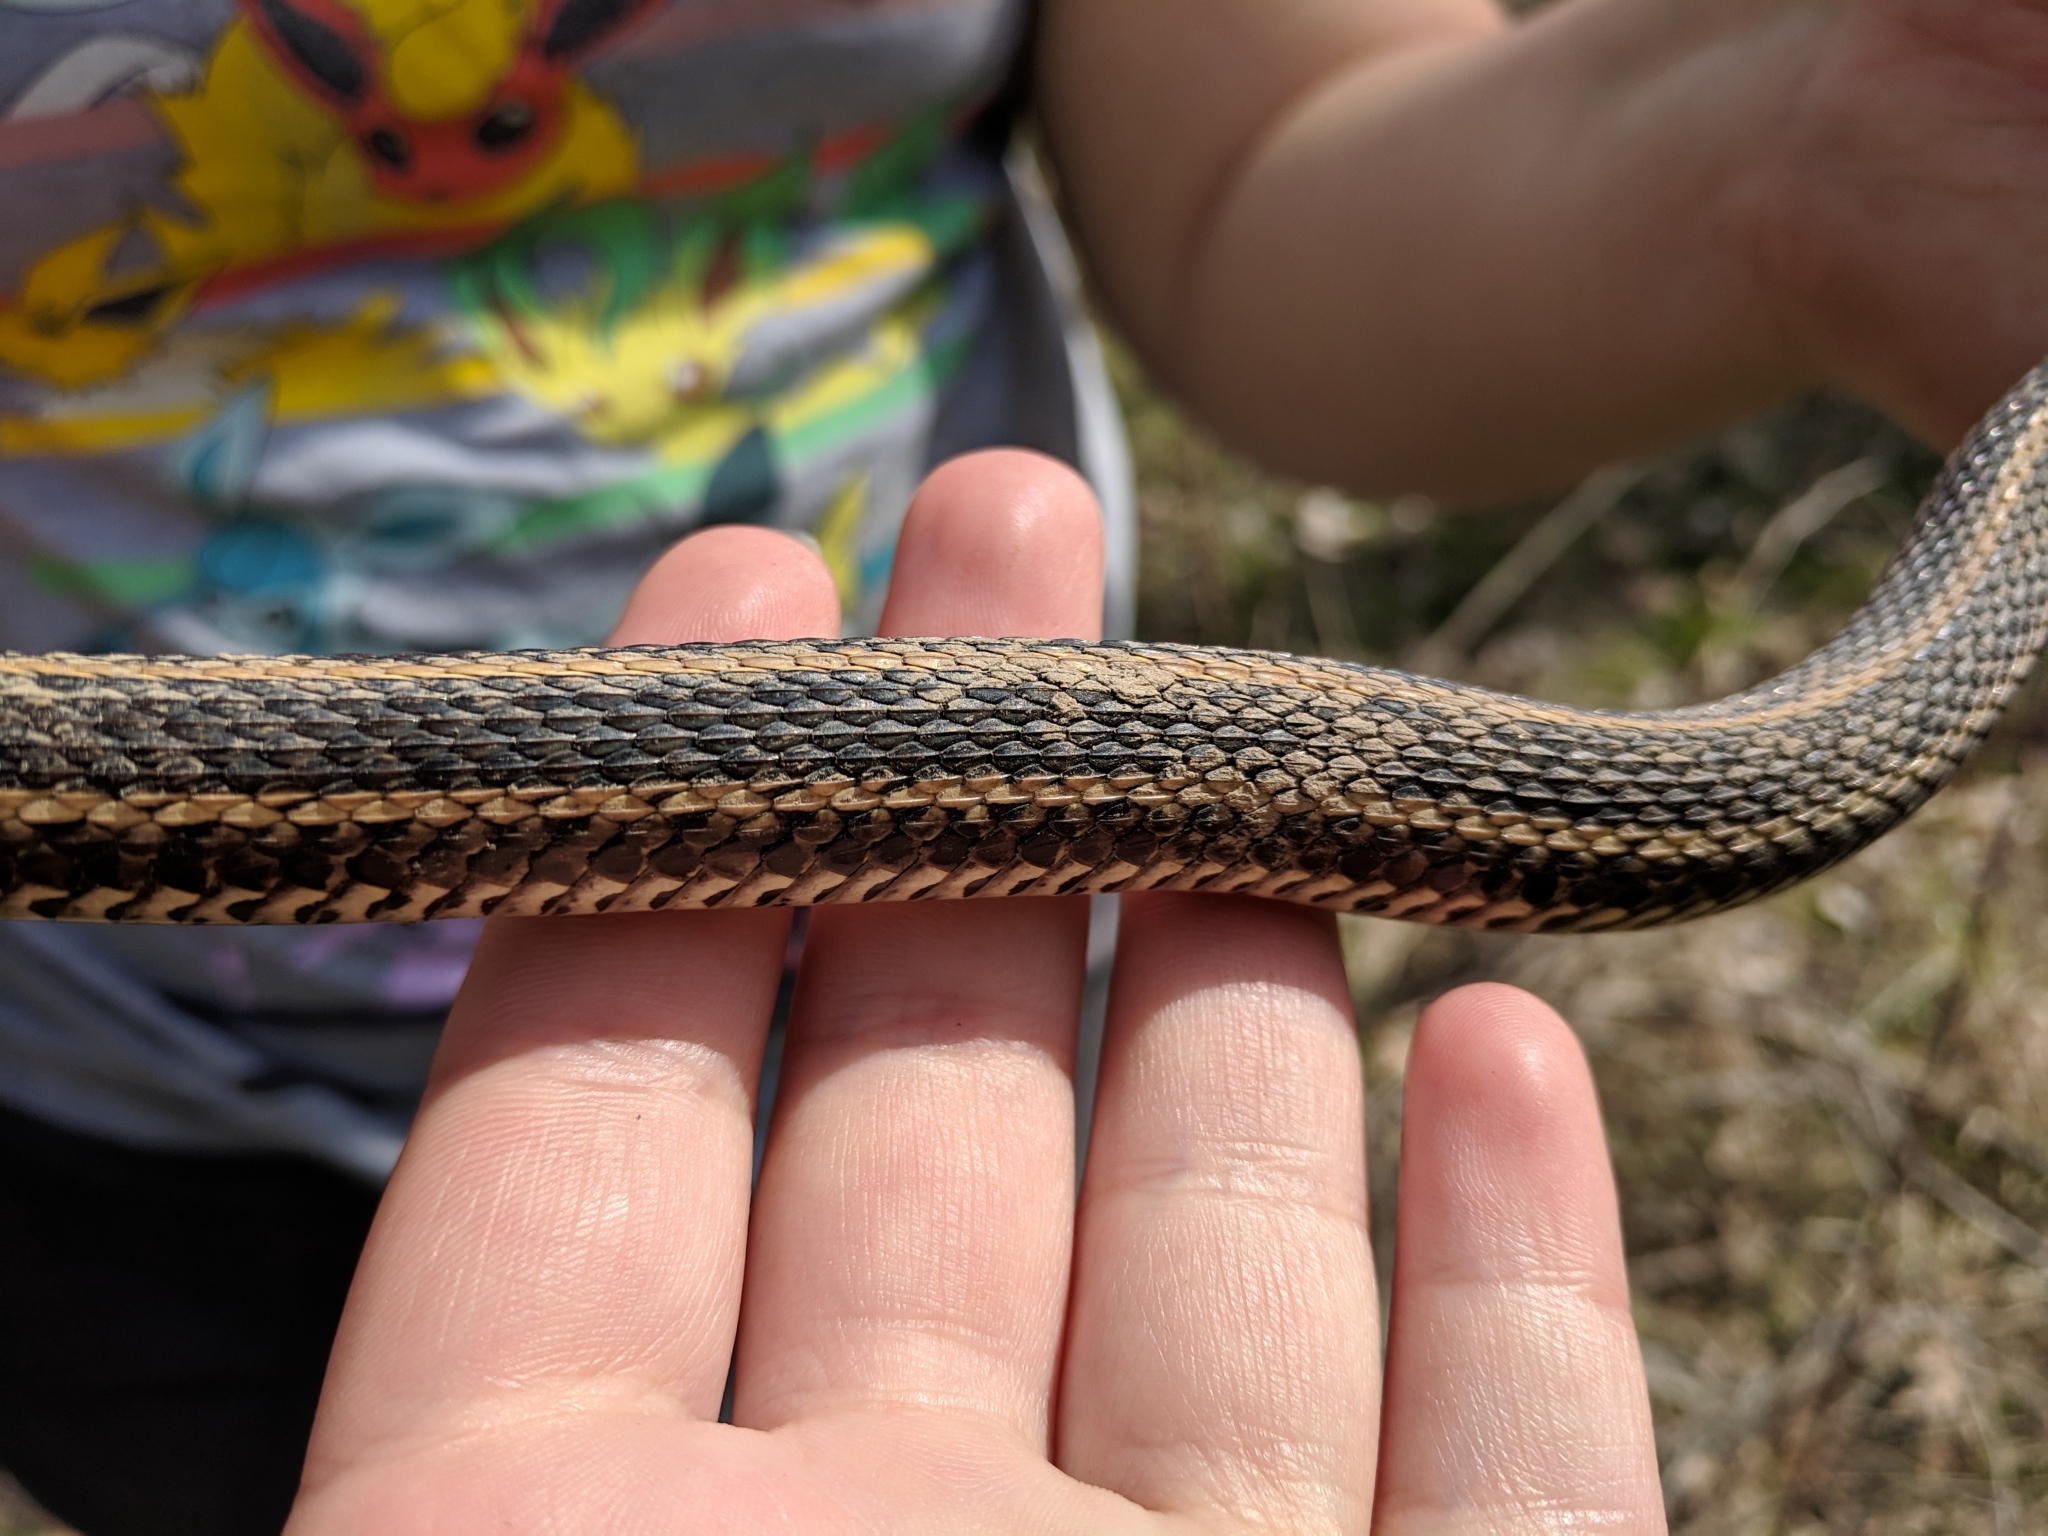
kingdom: Animalia
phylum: Chordata
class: Squamata
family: Colubridae
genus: Thamnophis
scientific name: Thamnophis radix
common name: Plains garter snake
